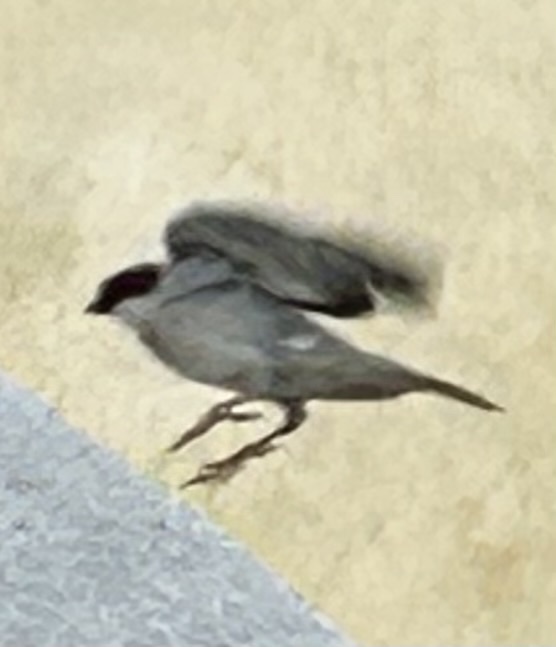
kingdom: Animalia
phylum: Chordata
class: Aves
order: Passeriformes
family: Passeridae
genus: Passer
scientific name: Passer domesticus
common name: House sparrow
